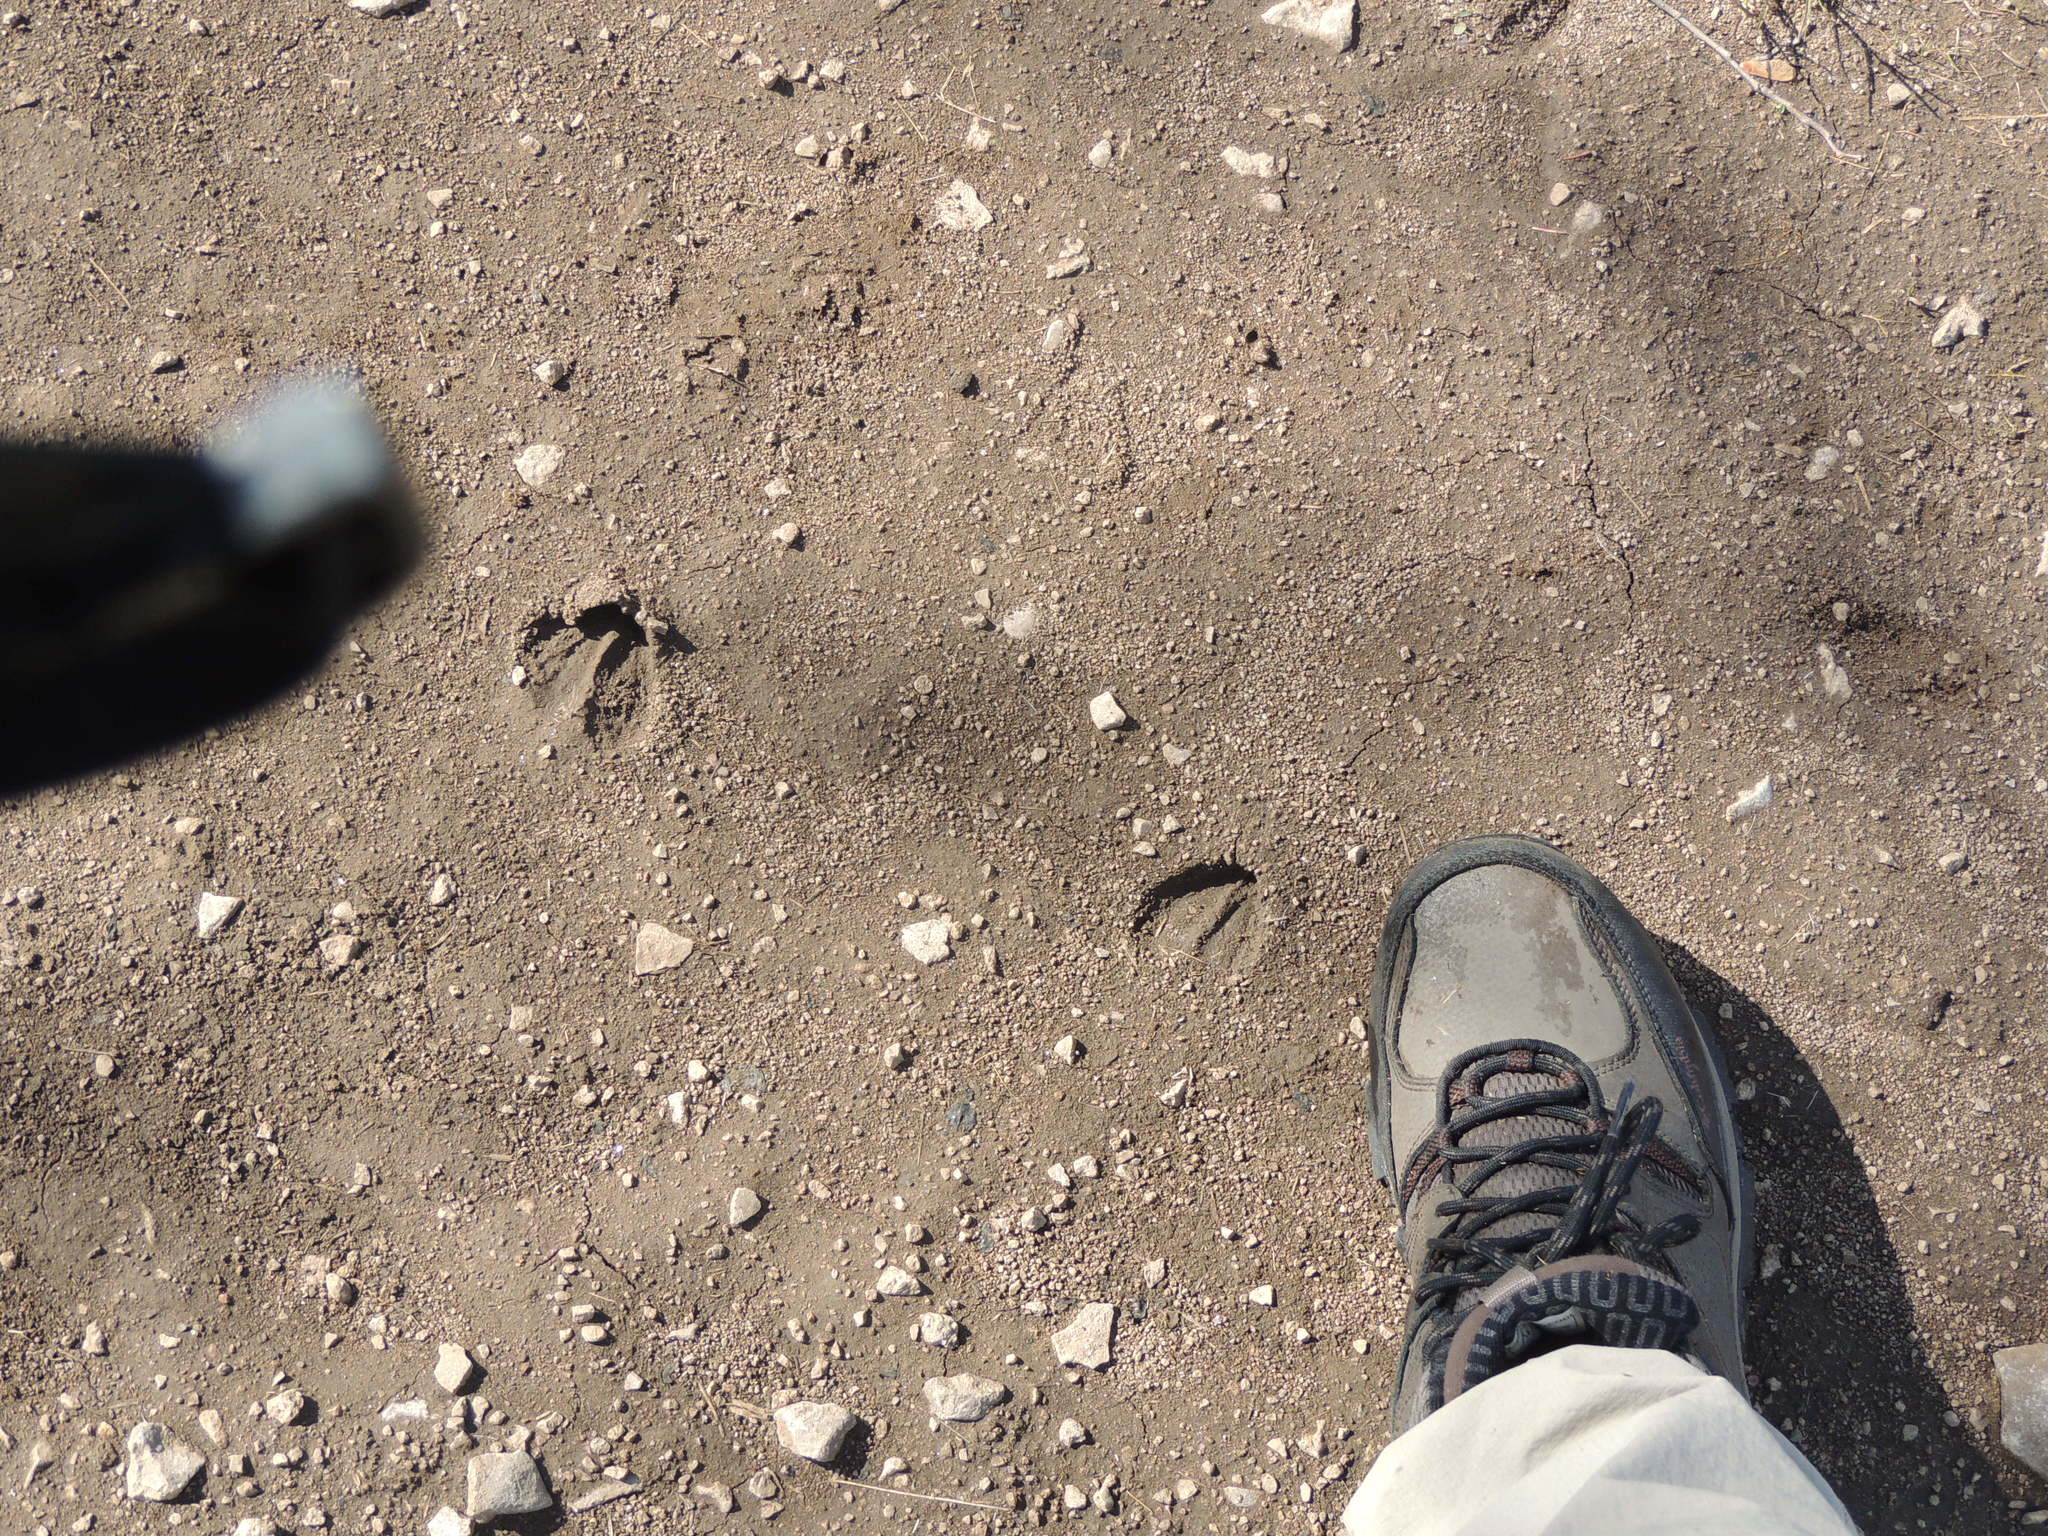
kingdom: Animalia
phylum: Chordata
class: Mammalia
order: Artiodactyla
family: Cervidae
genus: Odocoileus
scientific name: Odocoileus virginianus
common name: White-tailed deer
